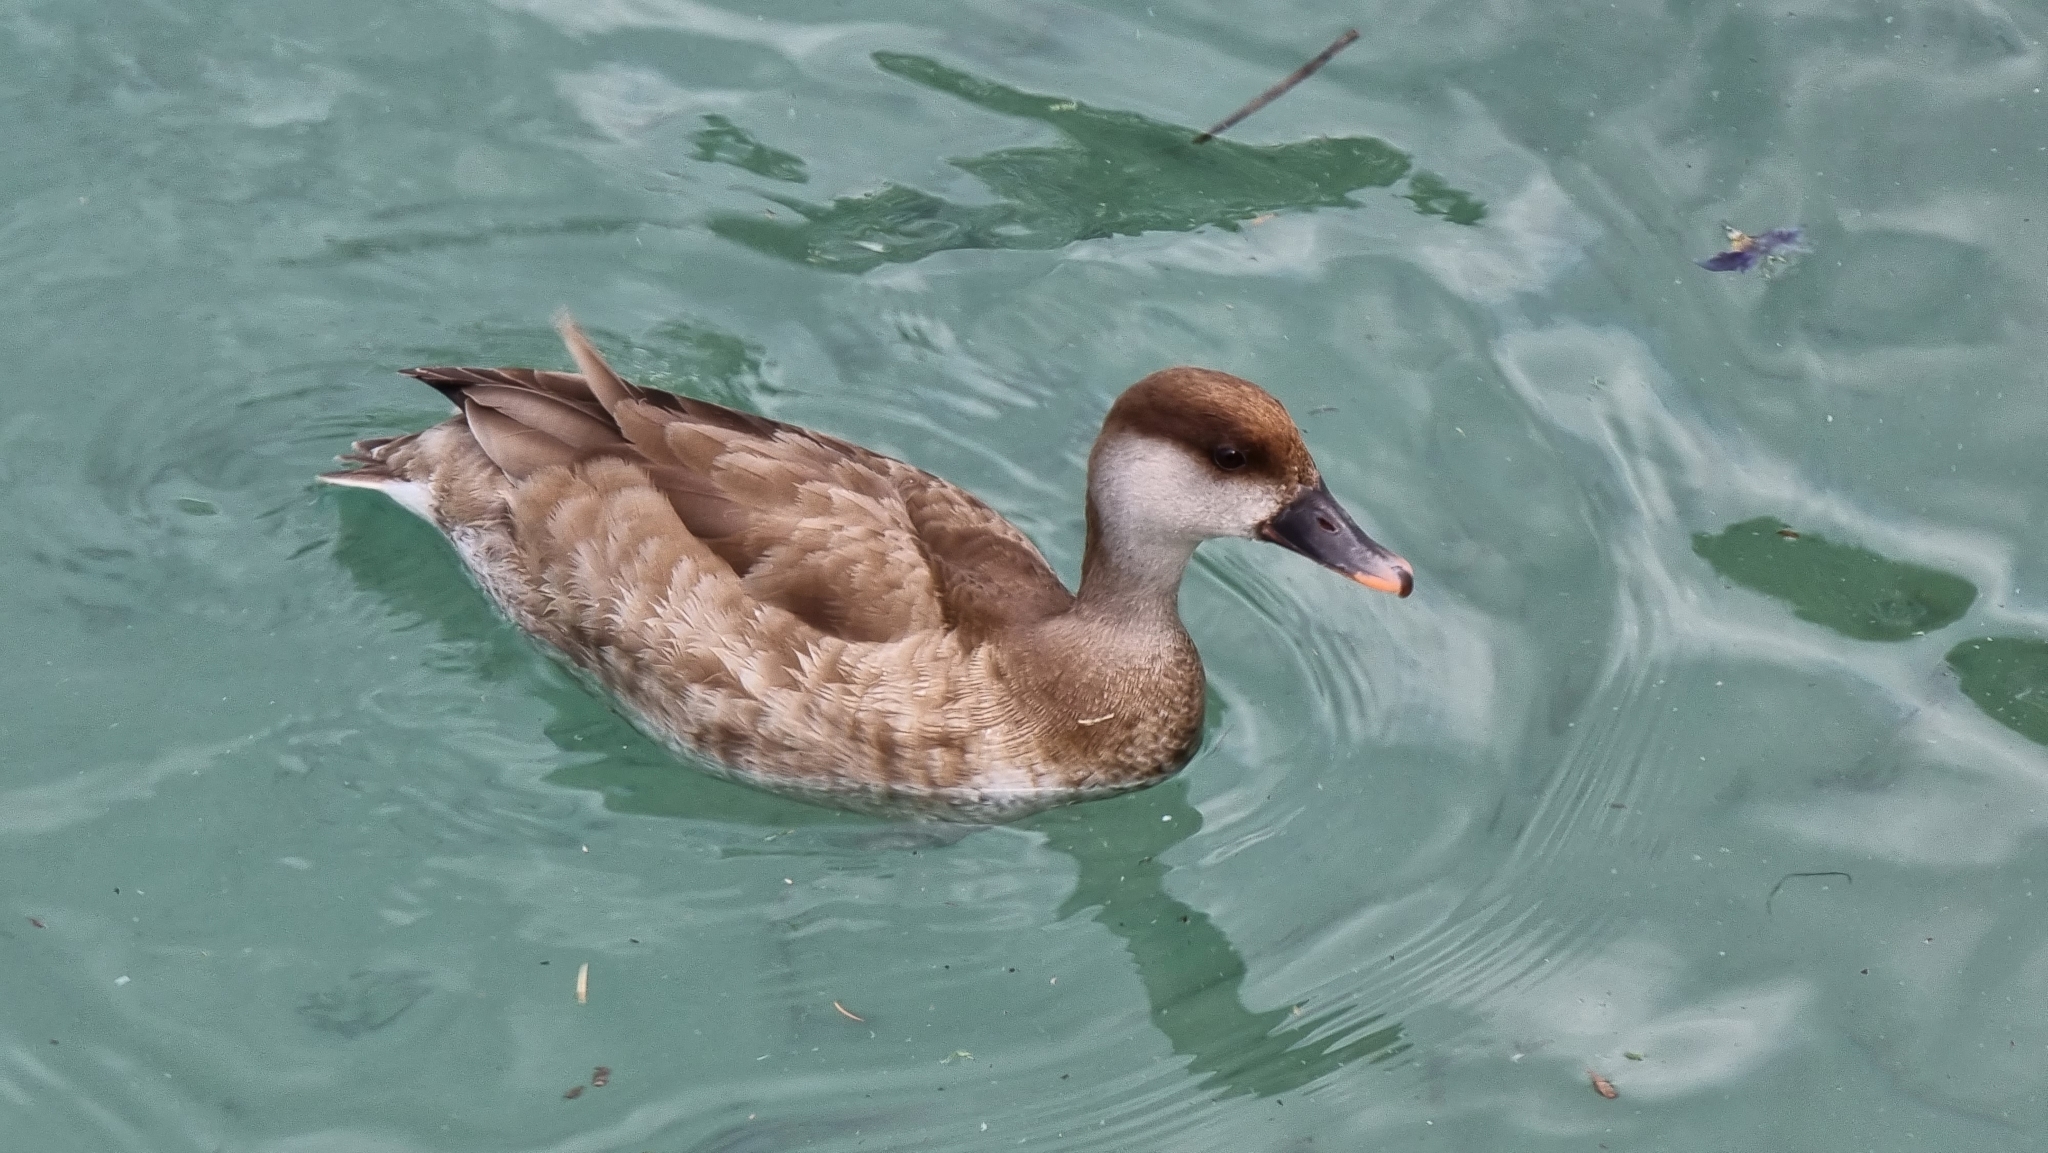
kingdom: Animalia
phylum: Chordata
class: Aves
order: Anseriformes
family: Anatidae
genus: Netta
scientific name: Netta rufina
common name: Red-crested pochard
